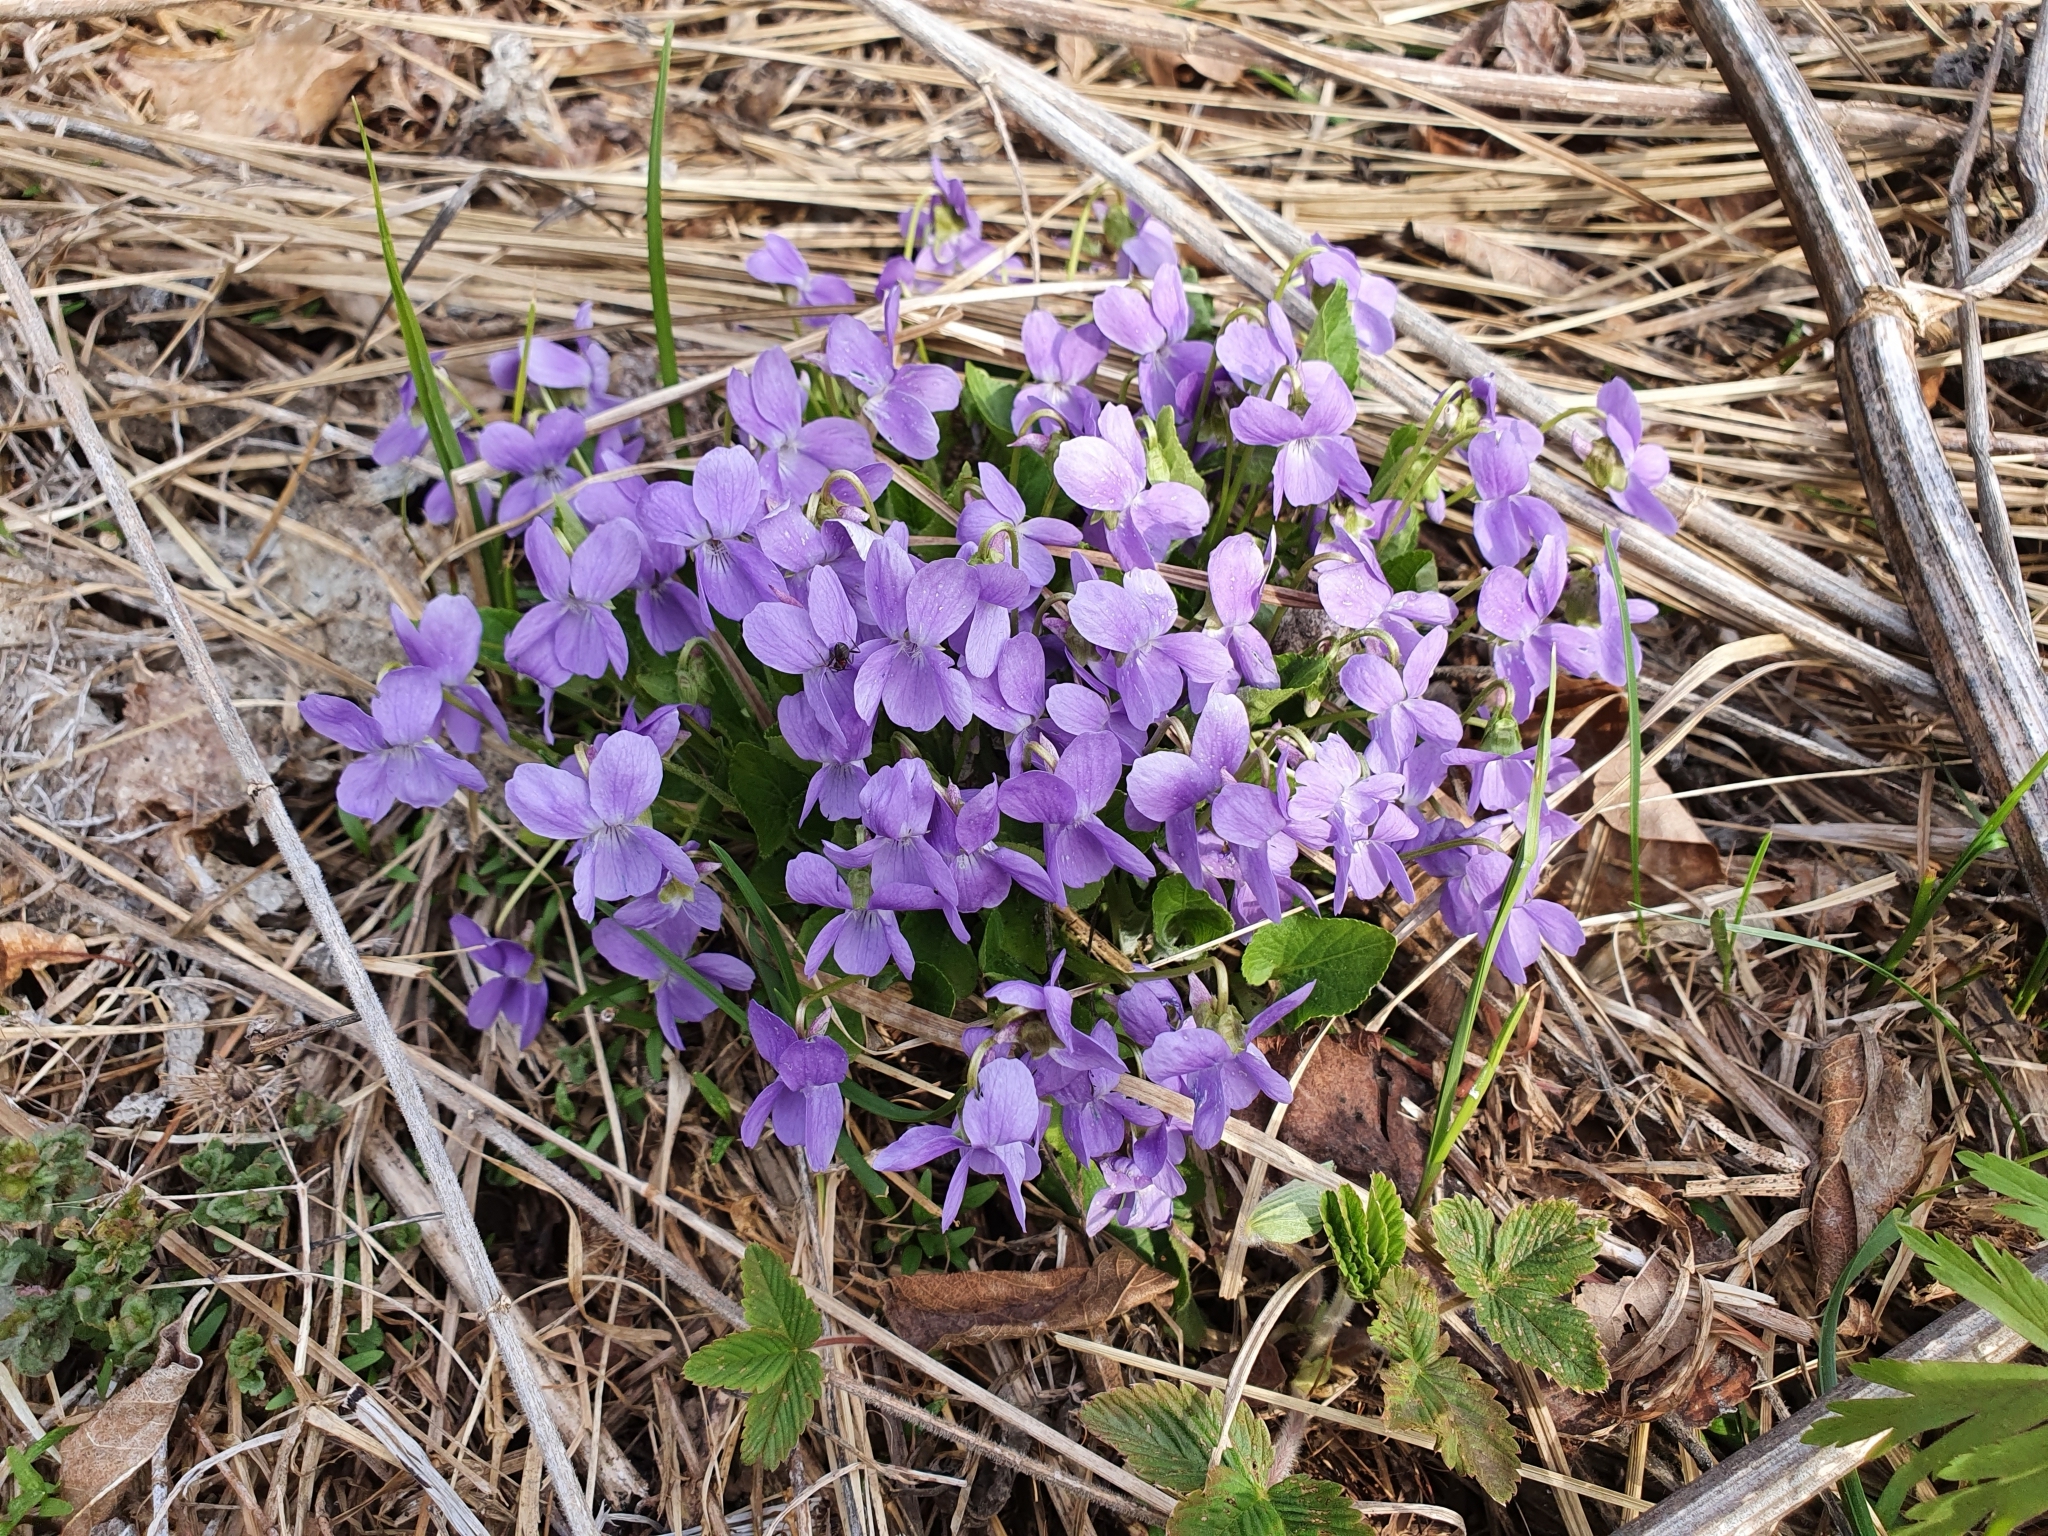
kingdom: Plantae
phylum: Tracheophyta
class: Magnoliopsida
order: Malpighiales
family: Violaceae
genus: Viola
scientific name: Viola hirta
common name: Hairy violet
